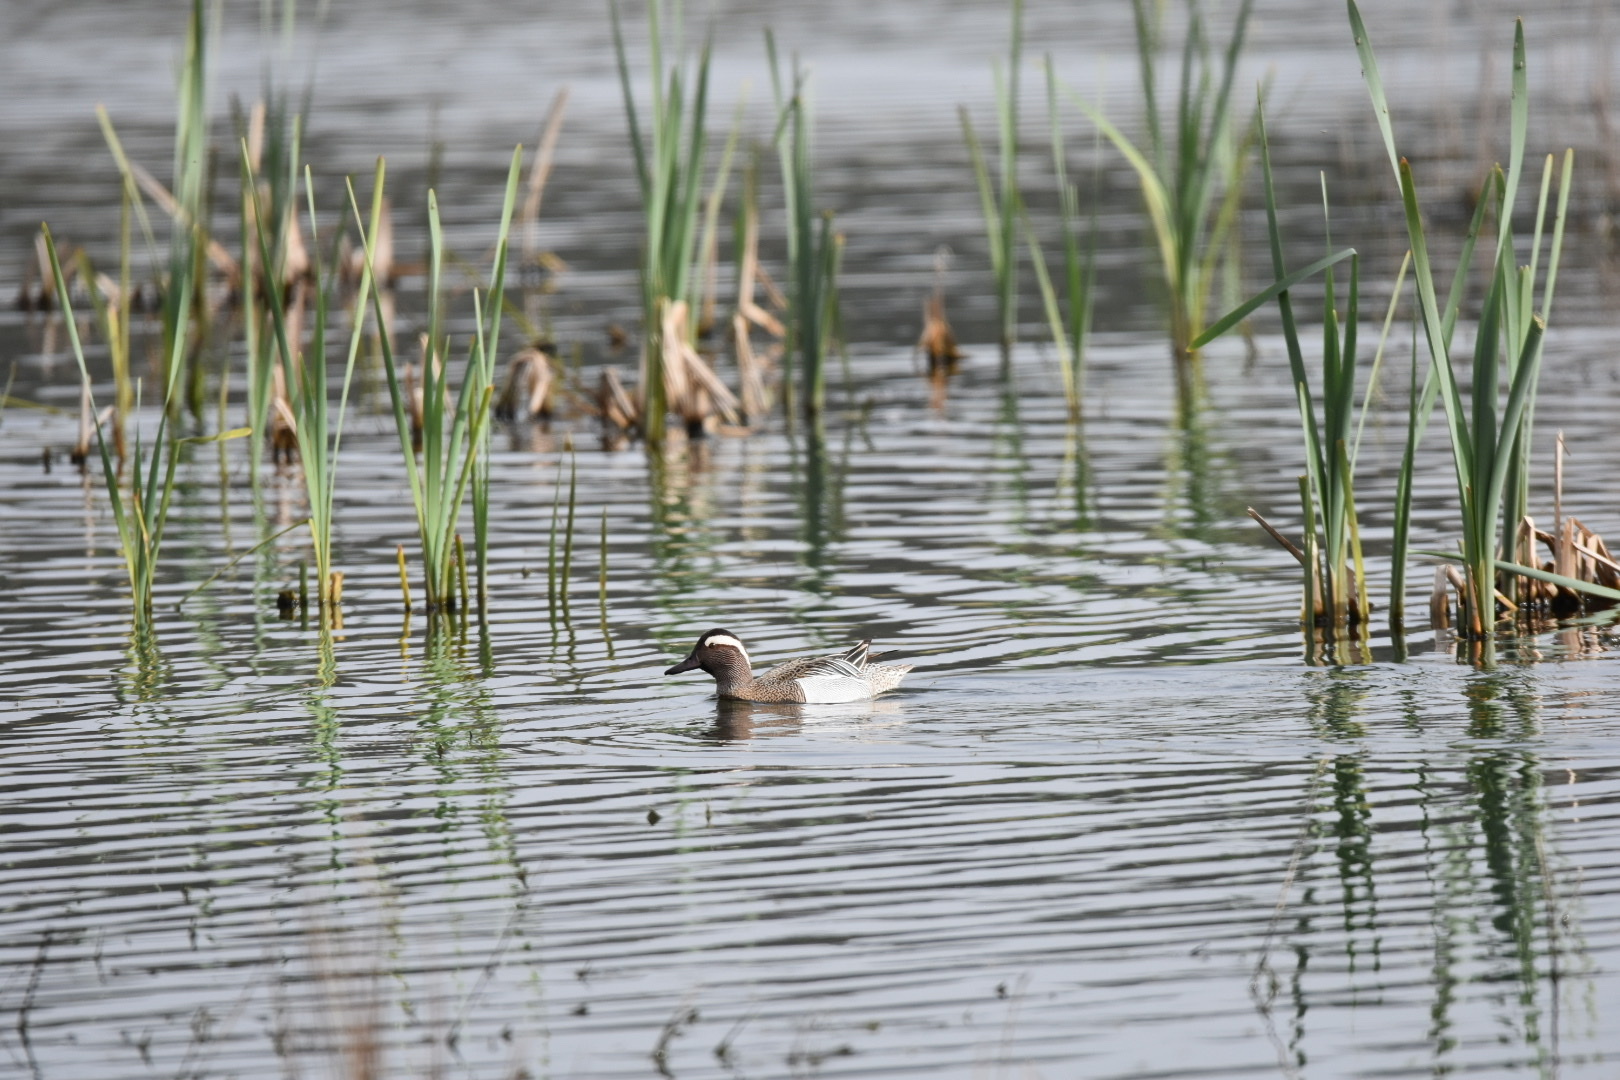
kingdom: Animalia
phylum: Chordata
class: Aves
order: Anseriformes
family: Anatidae
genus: Spatula
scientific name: Spatula querquedula
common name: Garganey
